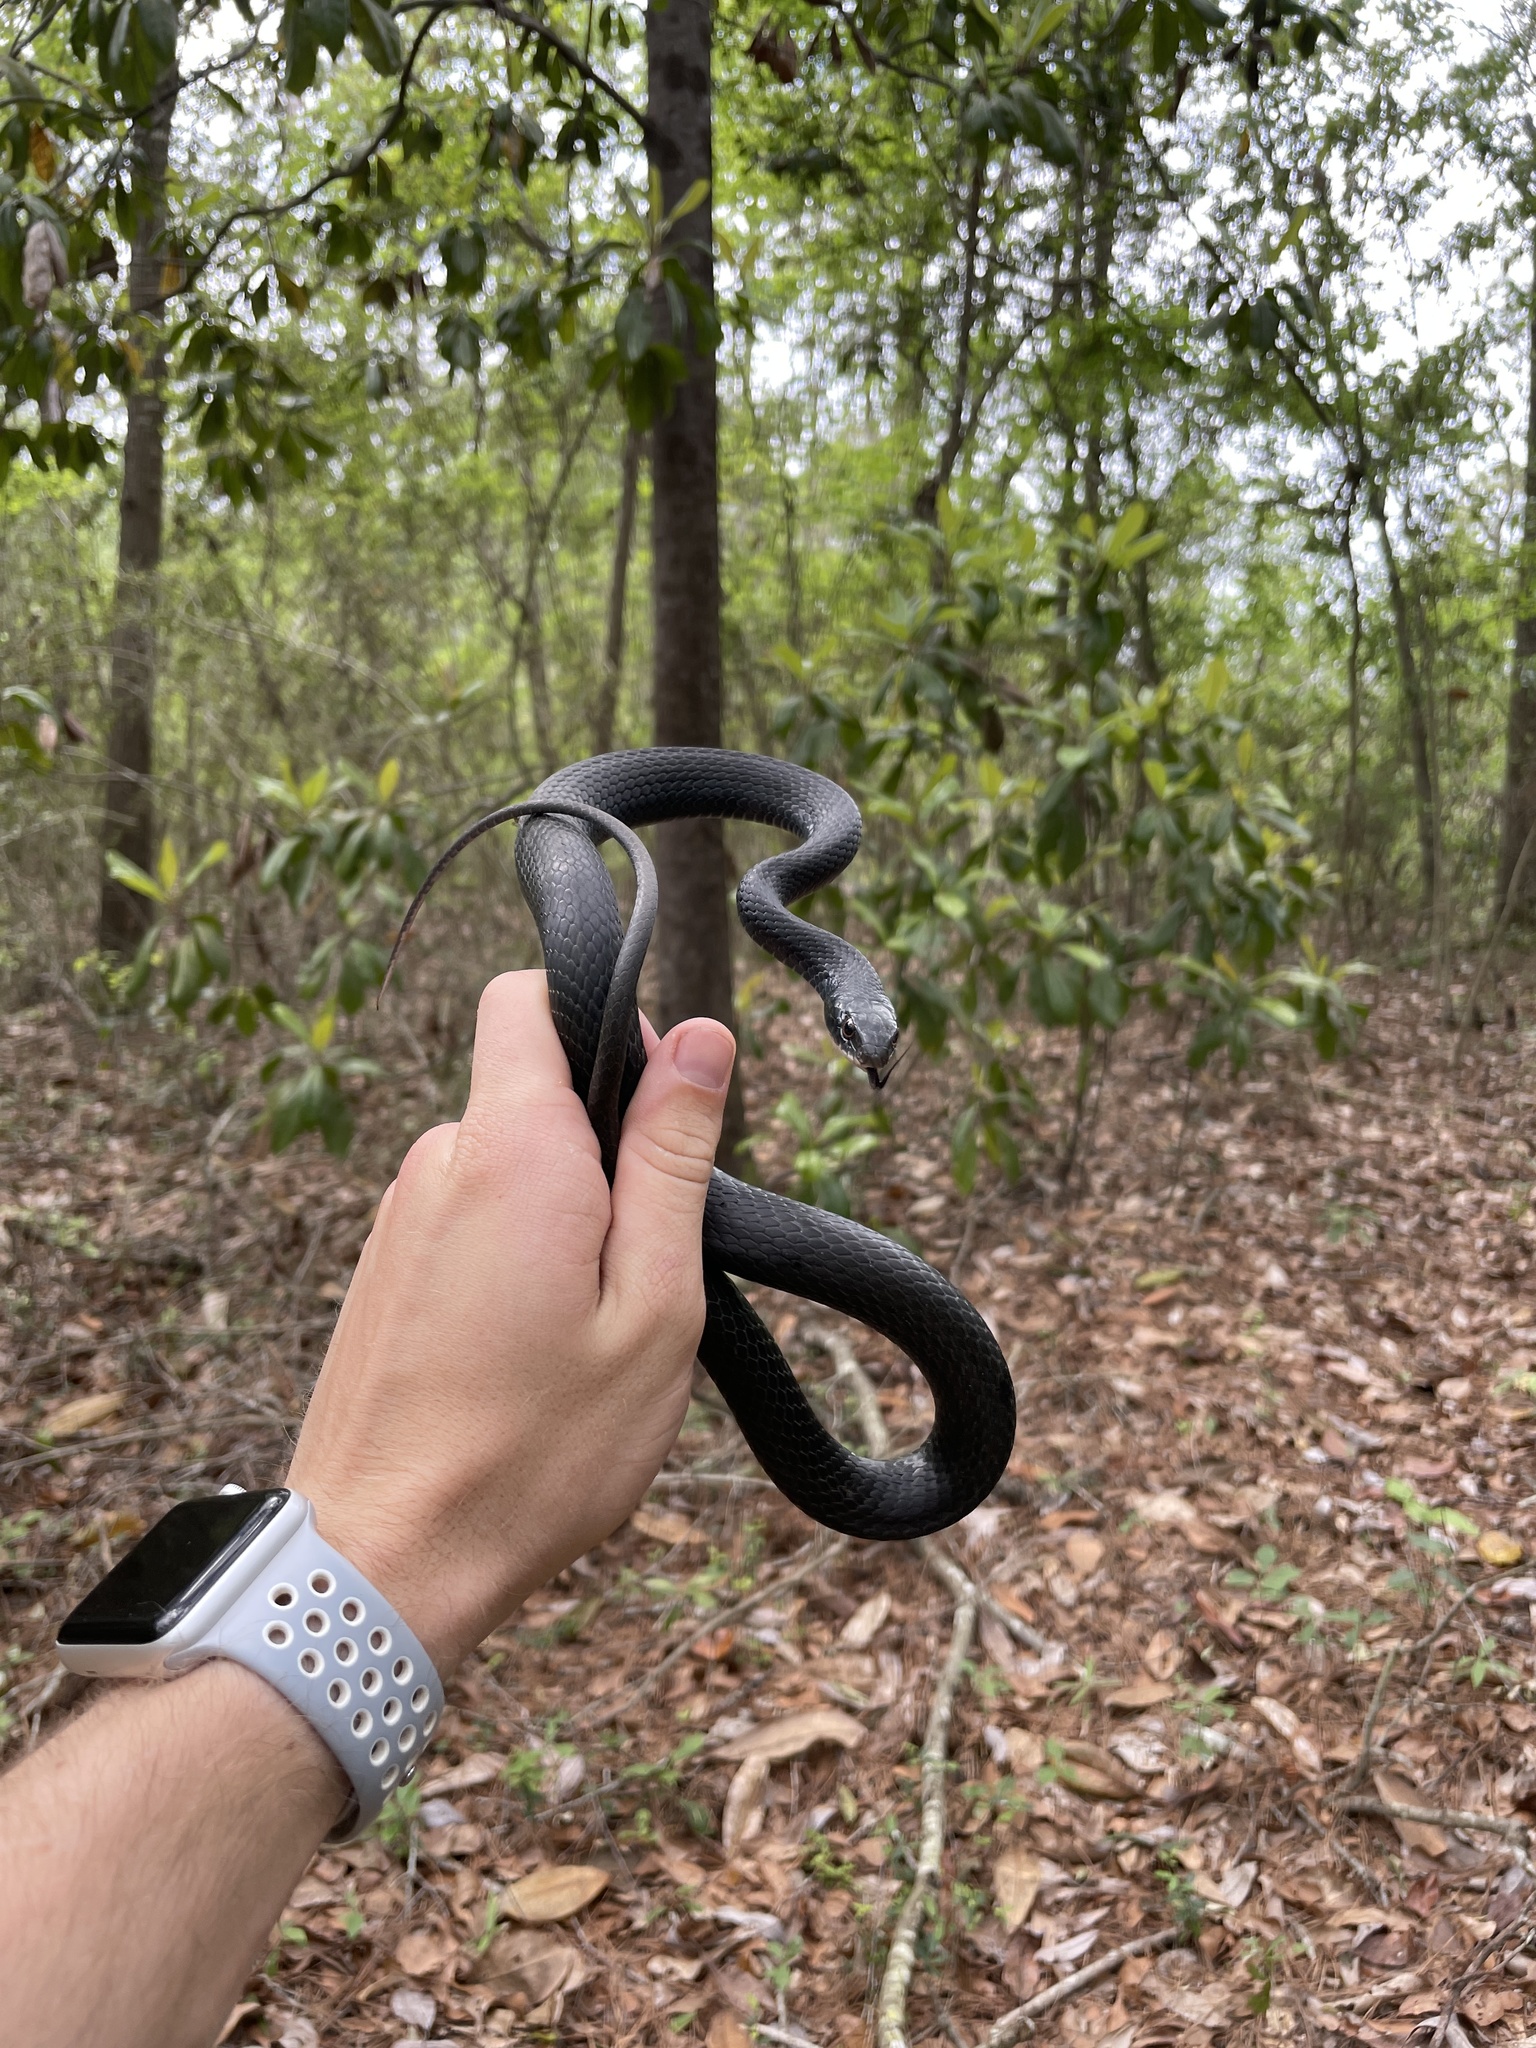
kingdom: Animalia
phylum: Chordata
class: Squamata
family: Colubridae
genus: Coluber
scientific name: Coluber constrictor
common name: Eastern racer
